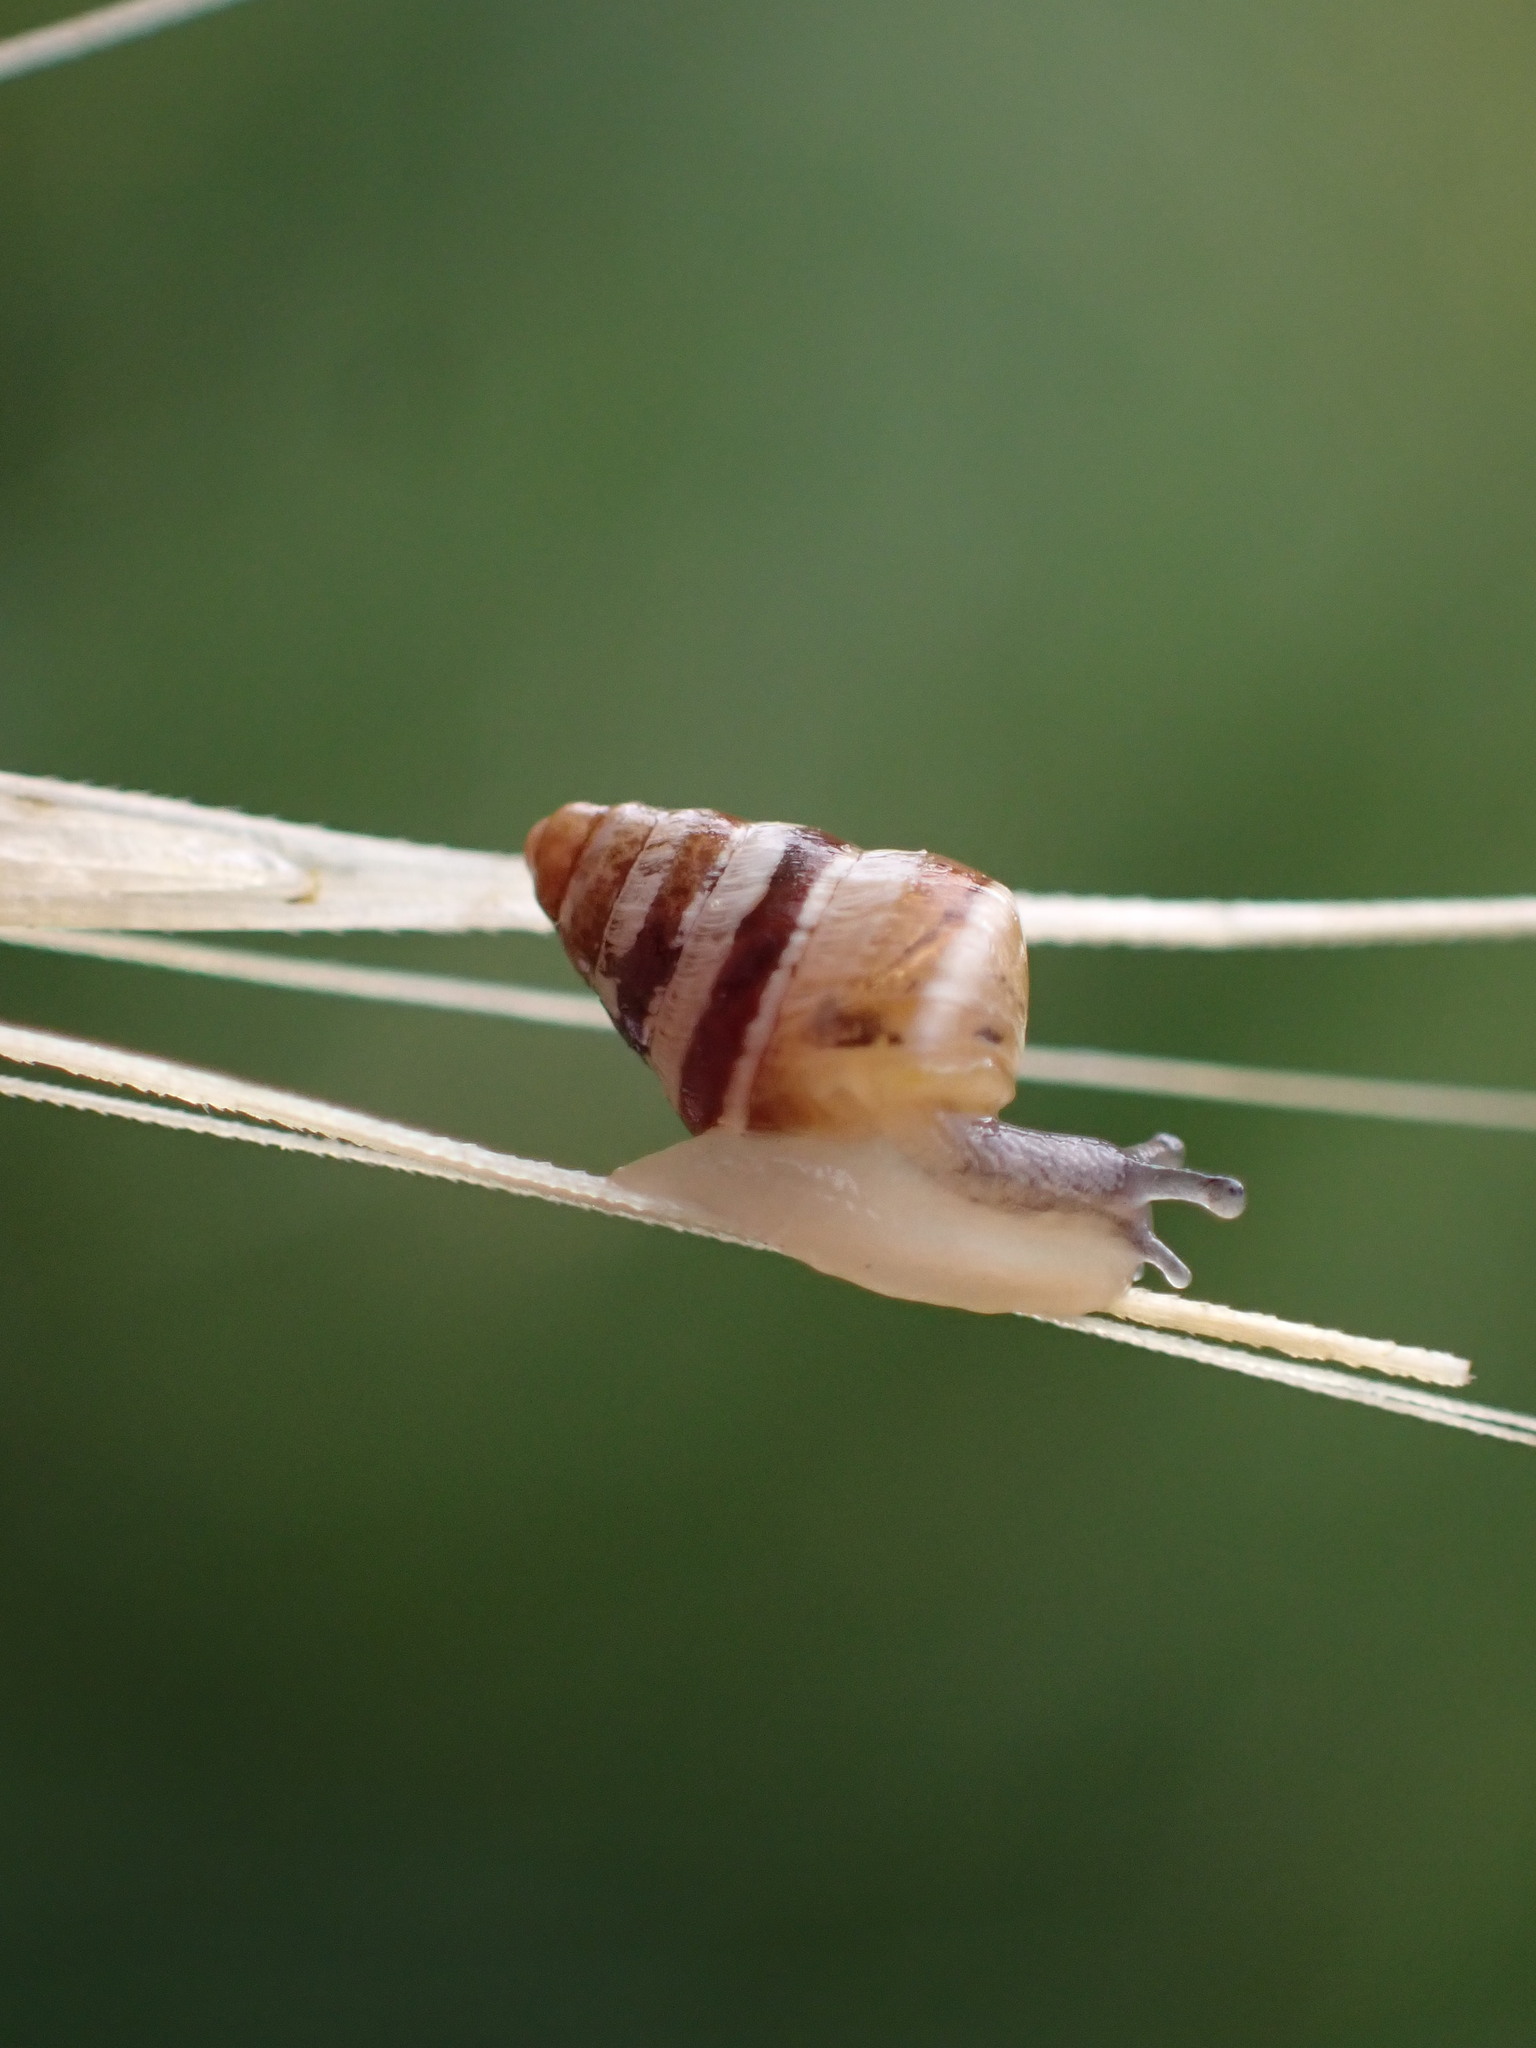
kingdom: Animalia
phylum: Mollusca
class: Gastropoda
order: Stylommatophora
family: Geomitridae
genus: Cochlicella
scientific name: Cochlicella barbara
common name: Potbellied helicellid
